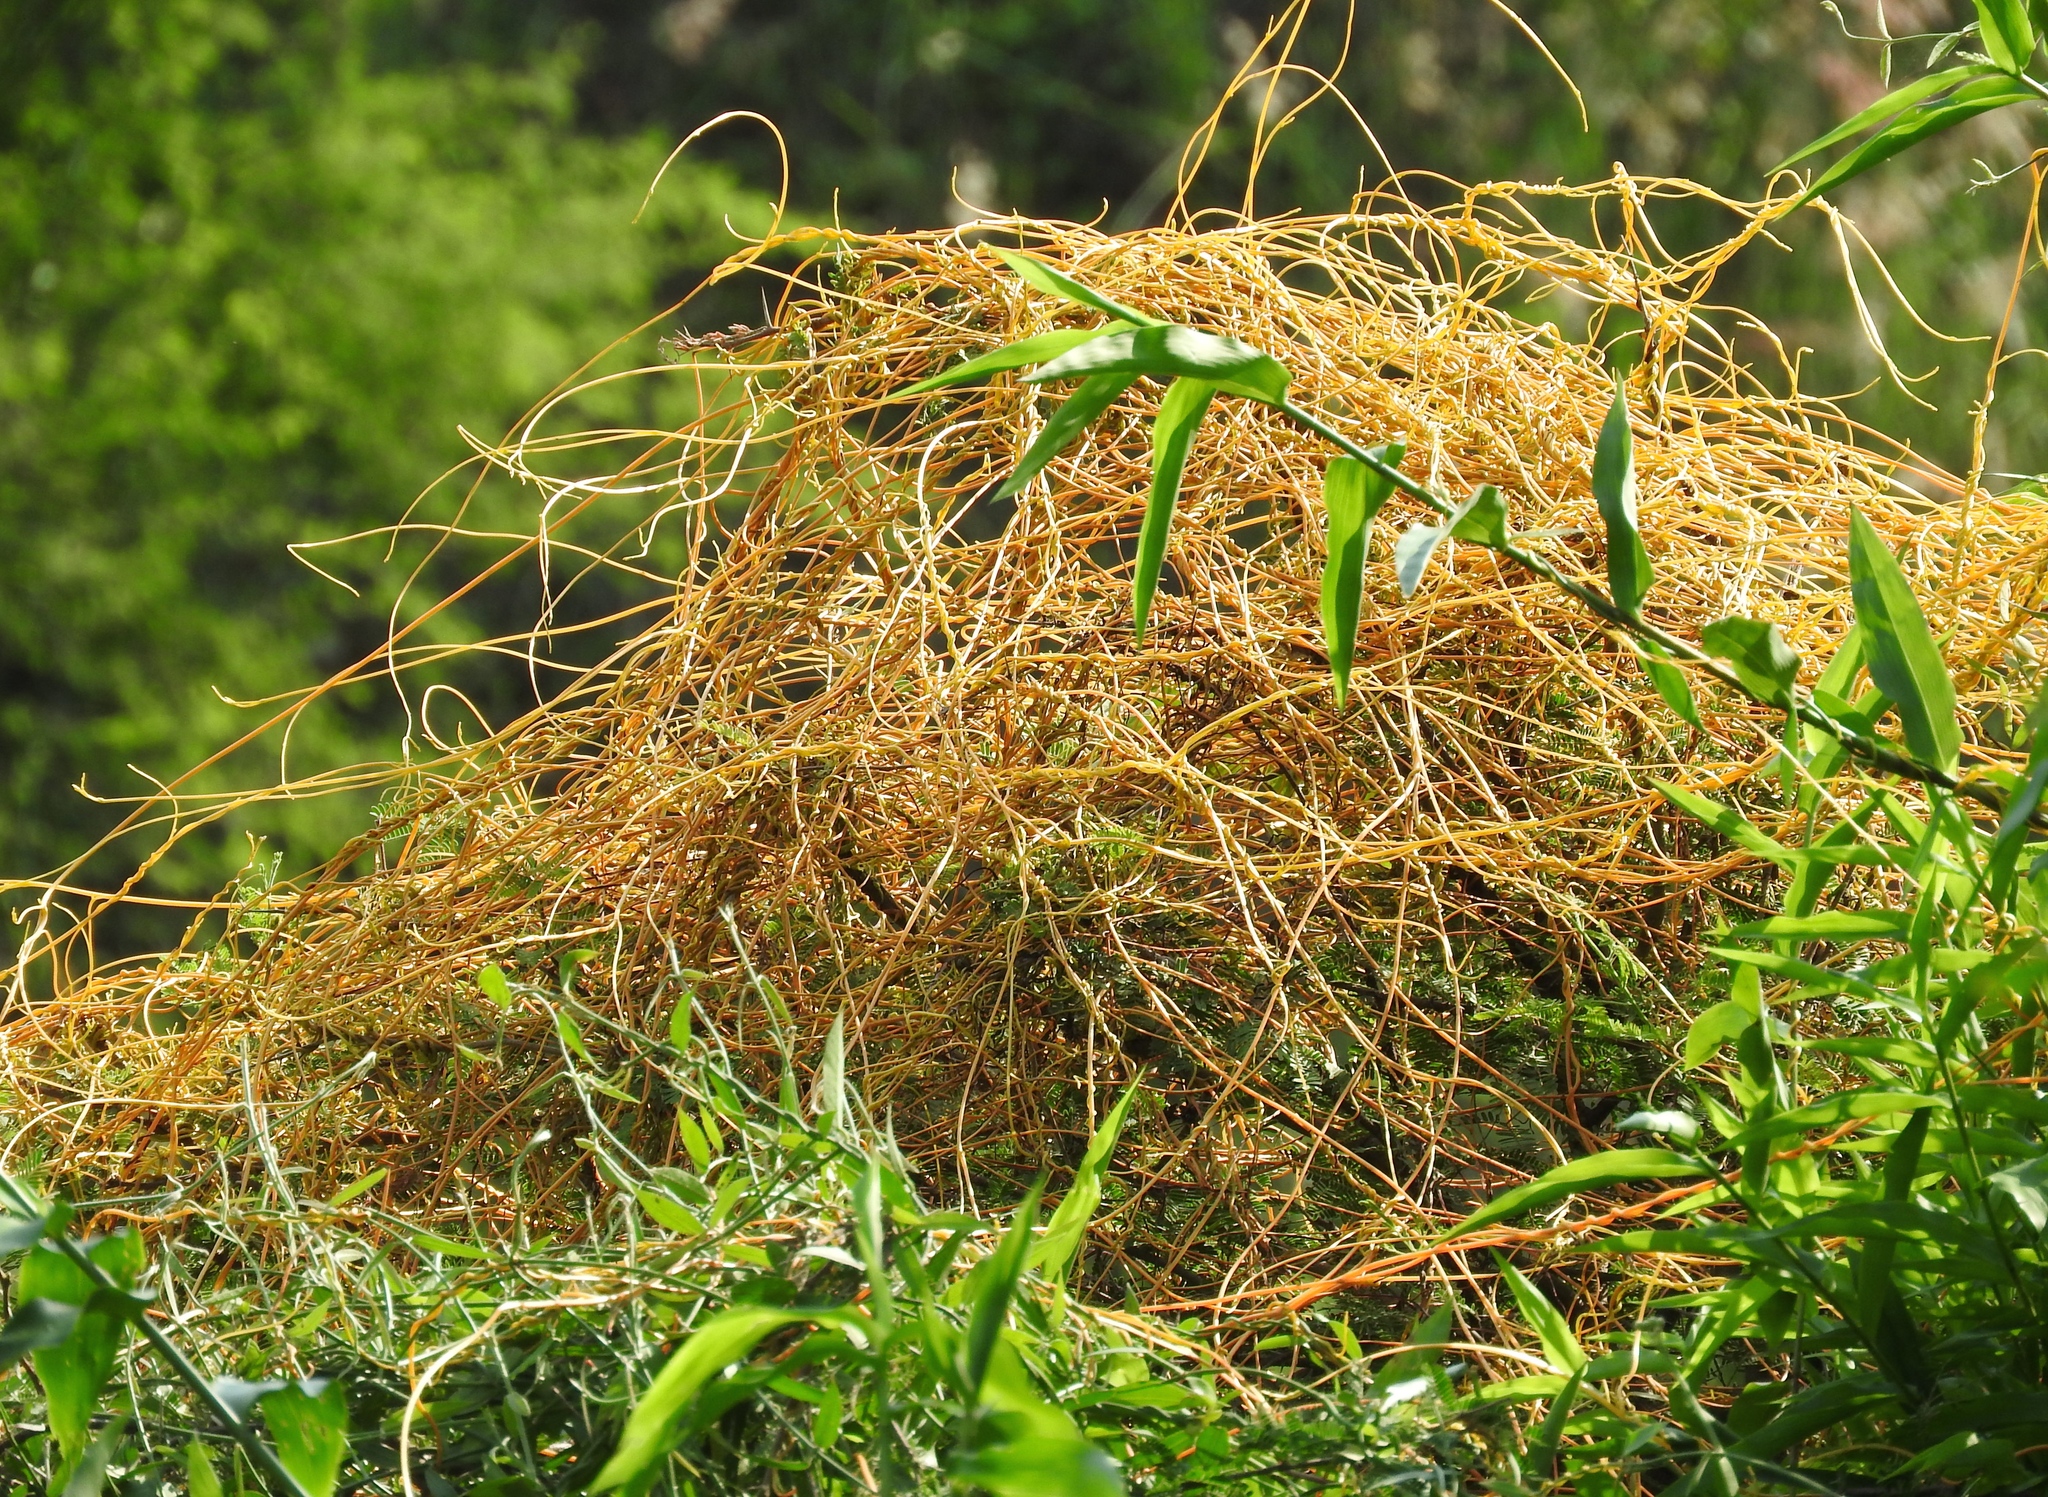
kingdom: Plantae
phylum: Tracheophyta
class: Magnoliopsida
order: Solanales
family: Convolvulaceae
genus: Cuscuta
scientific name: Cuscuta
